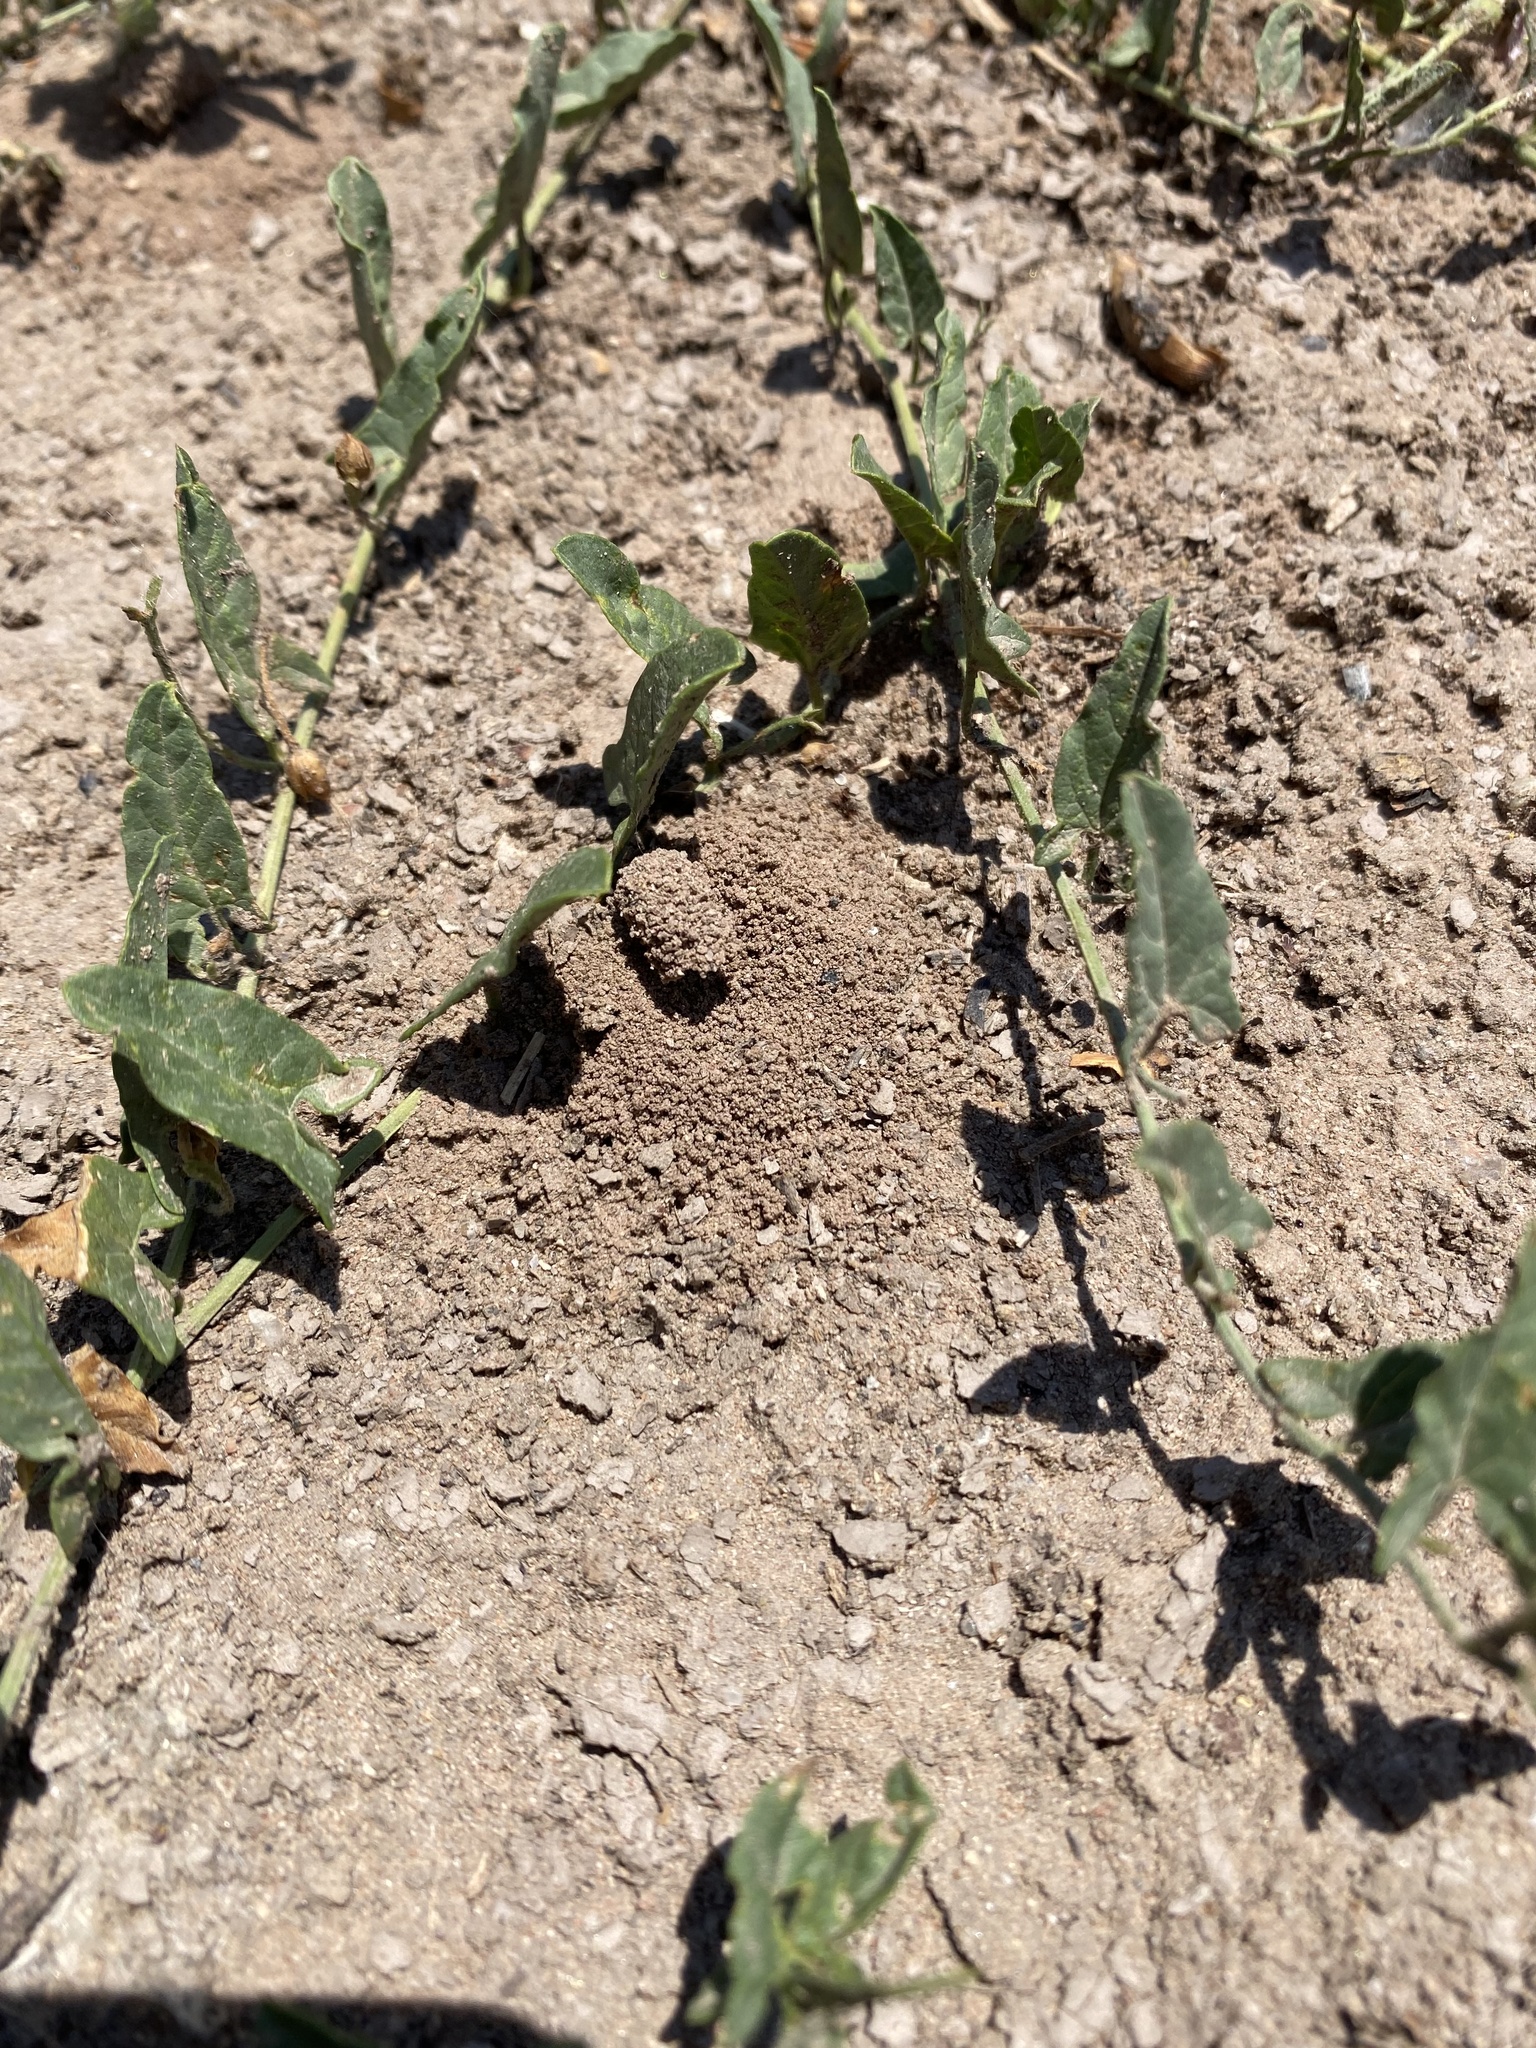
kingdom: Plantae
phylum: Tracheophyta
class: Magnoliopsida
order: Solanales
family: Convolvulaceae
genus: Convolvulus
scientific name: Convolvulus arvensis
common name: Field bindweed
